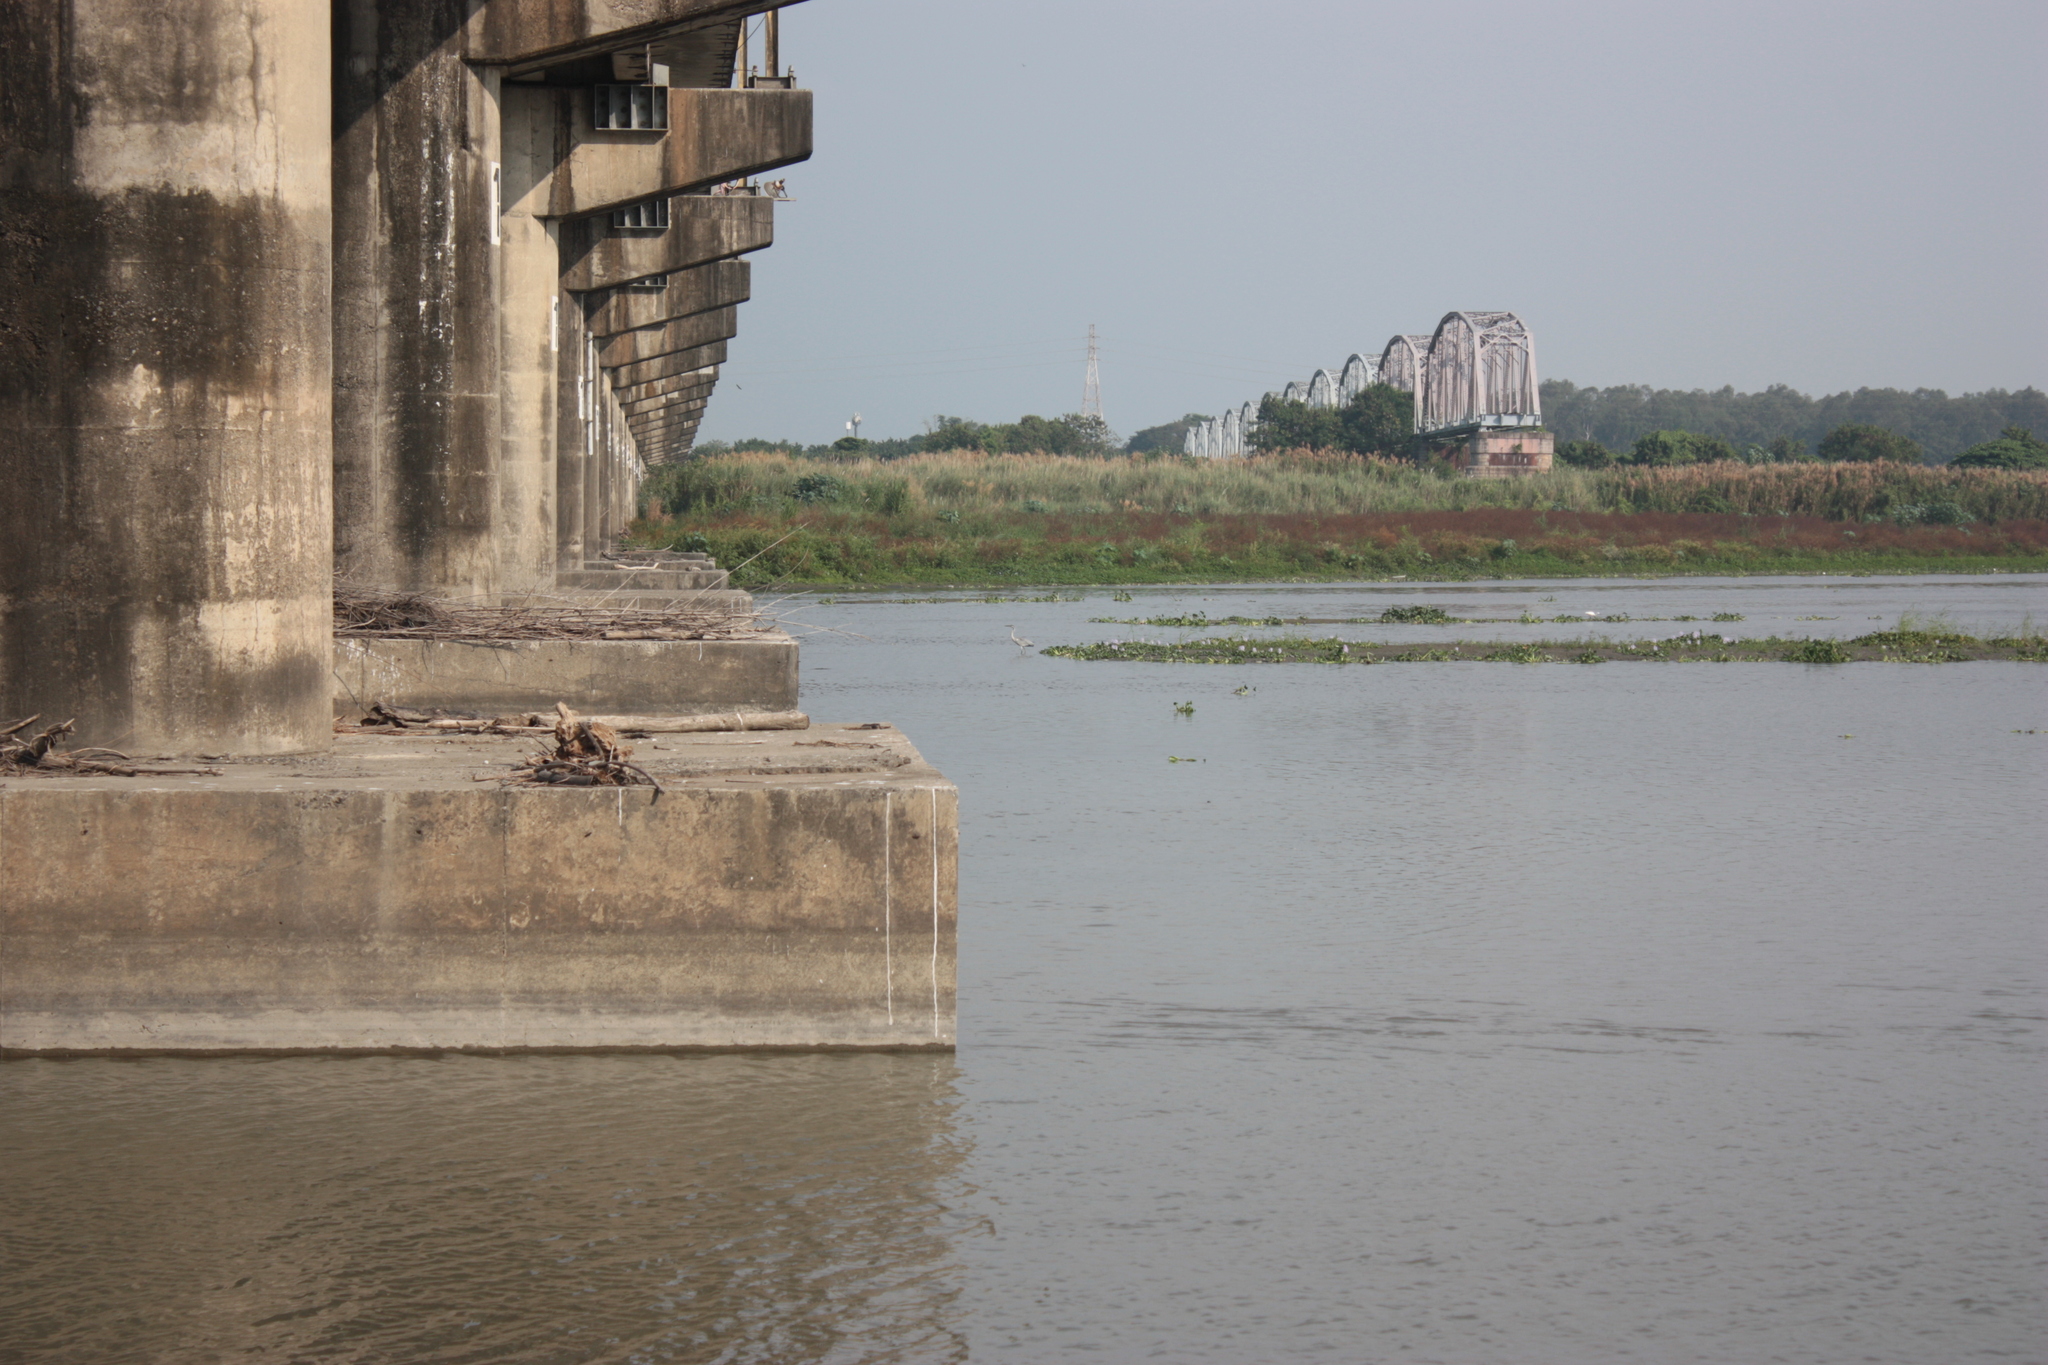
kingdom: Animalia
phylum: Chordata
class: Aves
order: Pelecaniformes
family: Ardeidae
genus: Ardea
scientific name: Ardea cinerea
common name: Grey heron
